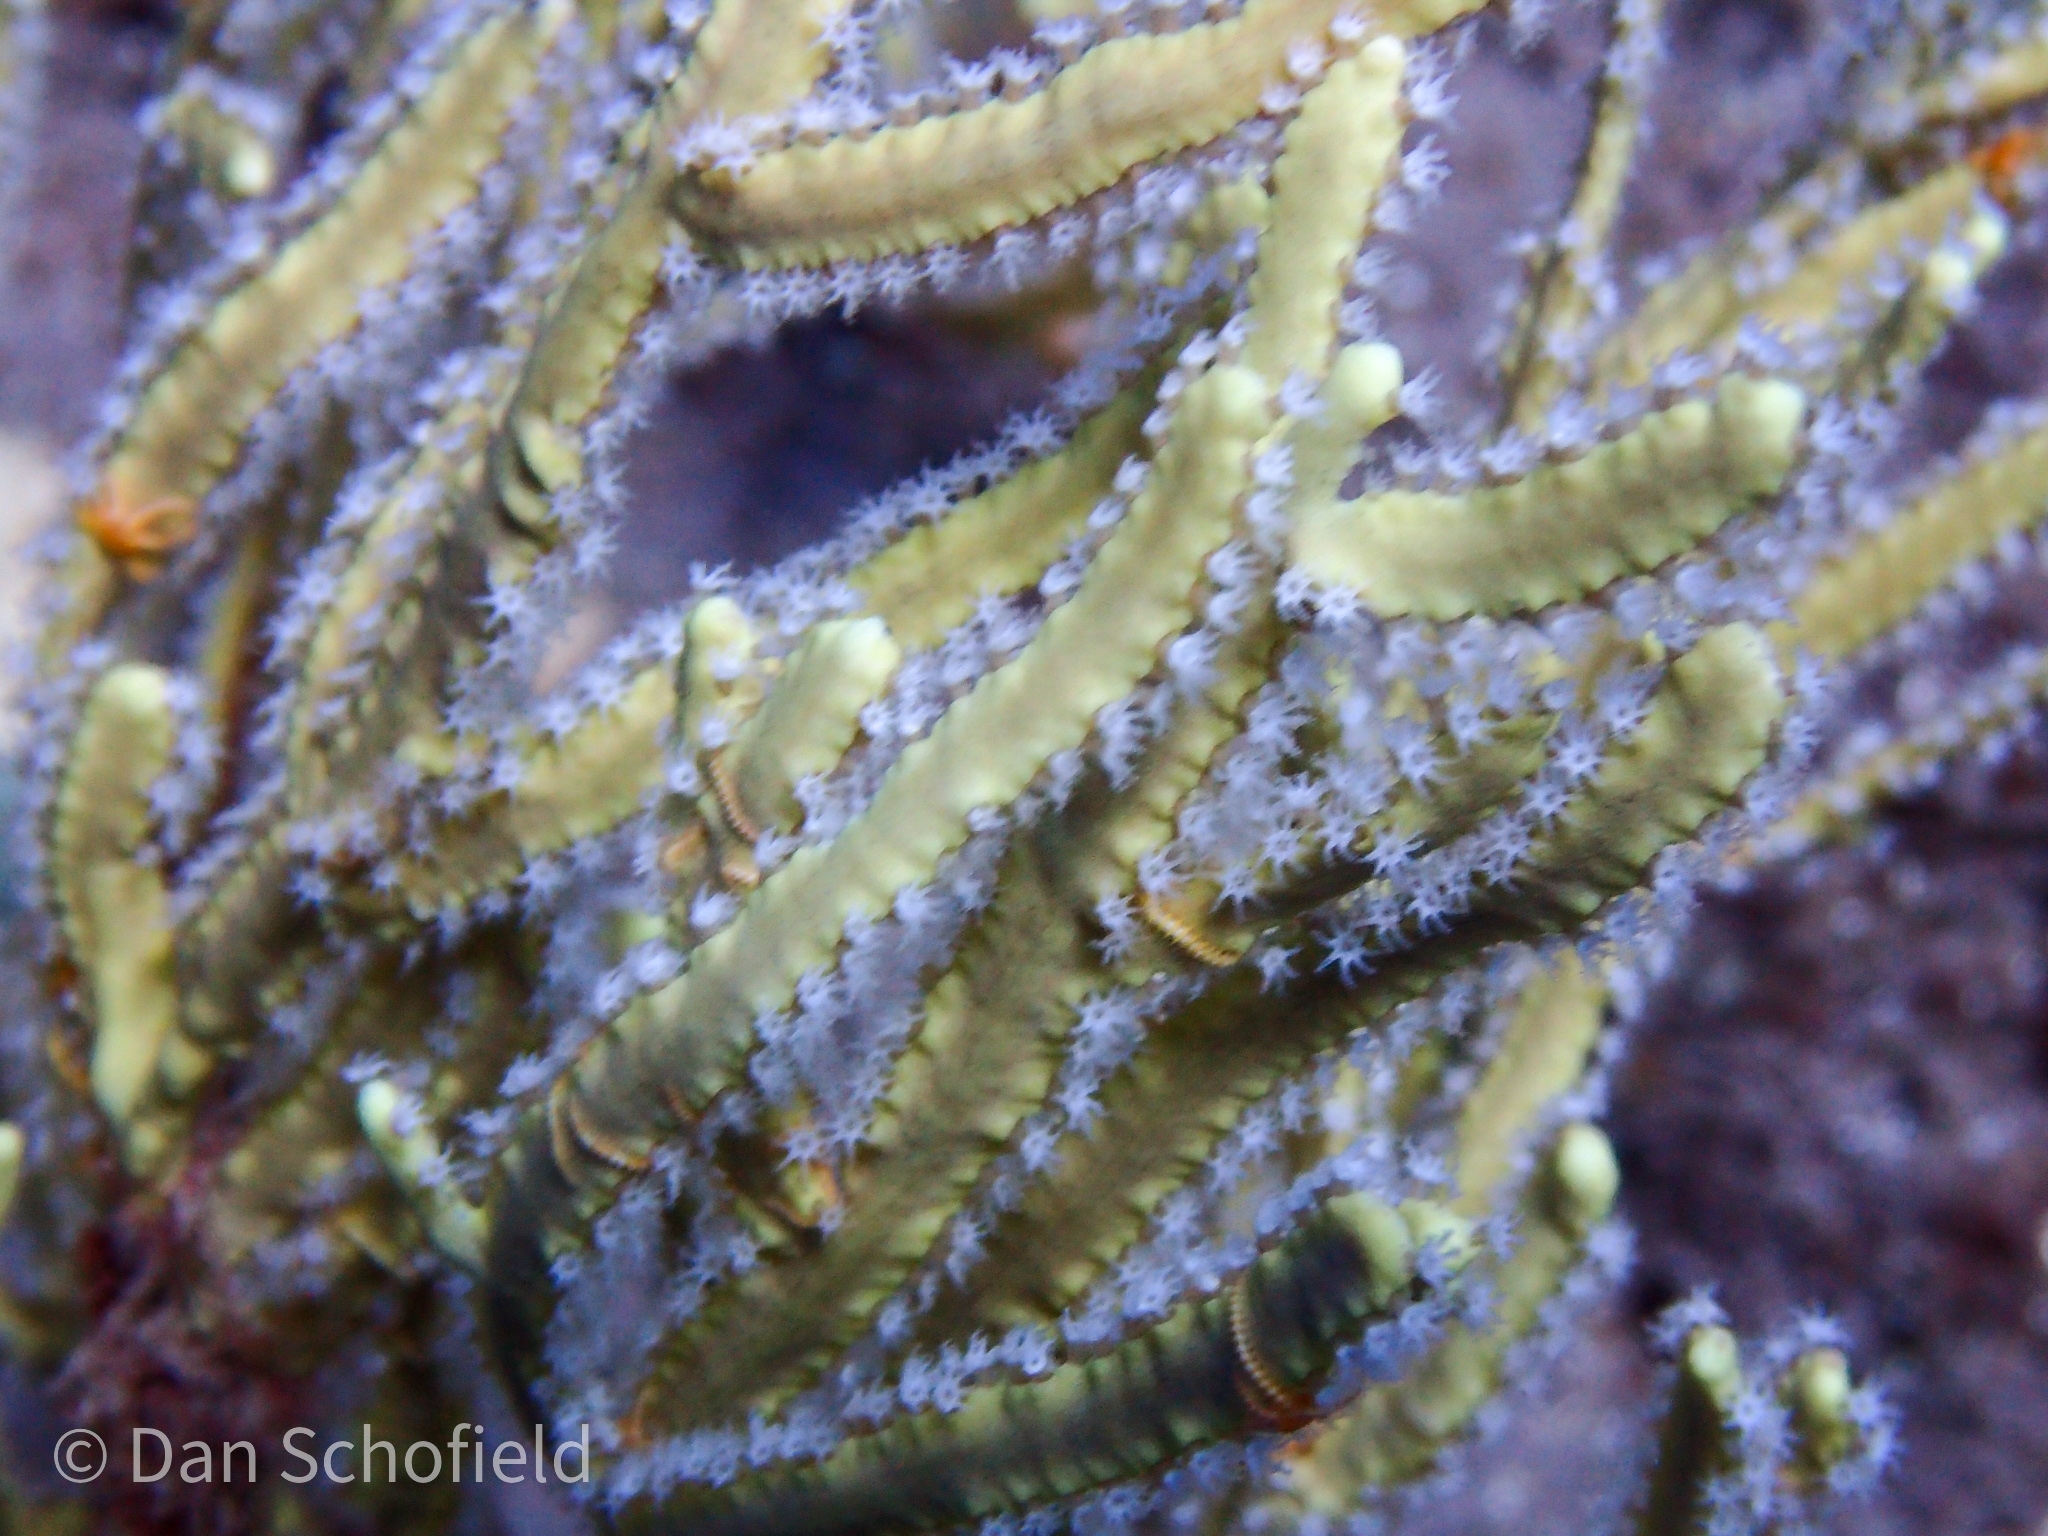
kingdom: Animalia
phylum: Cnidaria
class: Anthozoa
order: Malacalcyonacea
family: Pterogorgiidae
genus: Pterogorgia
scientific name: Pterogorgia citrina
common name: Yellow sea whip
